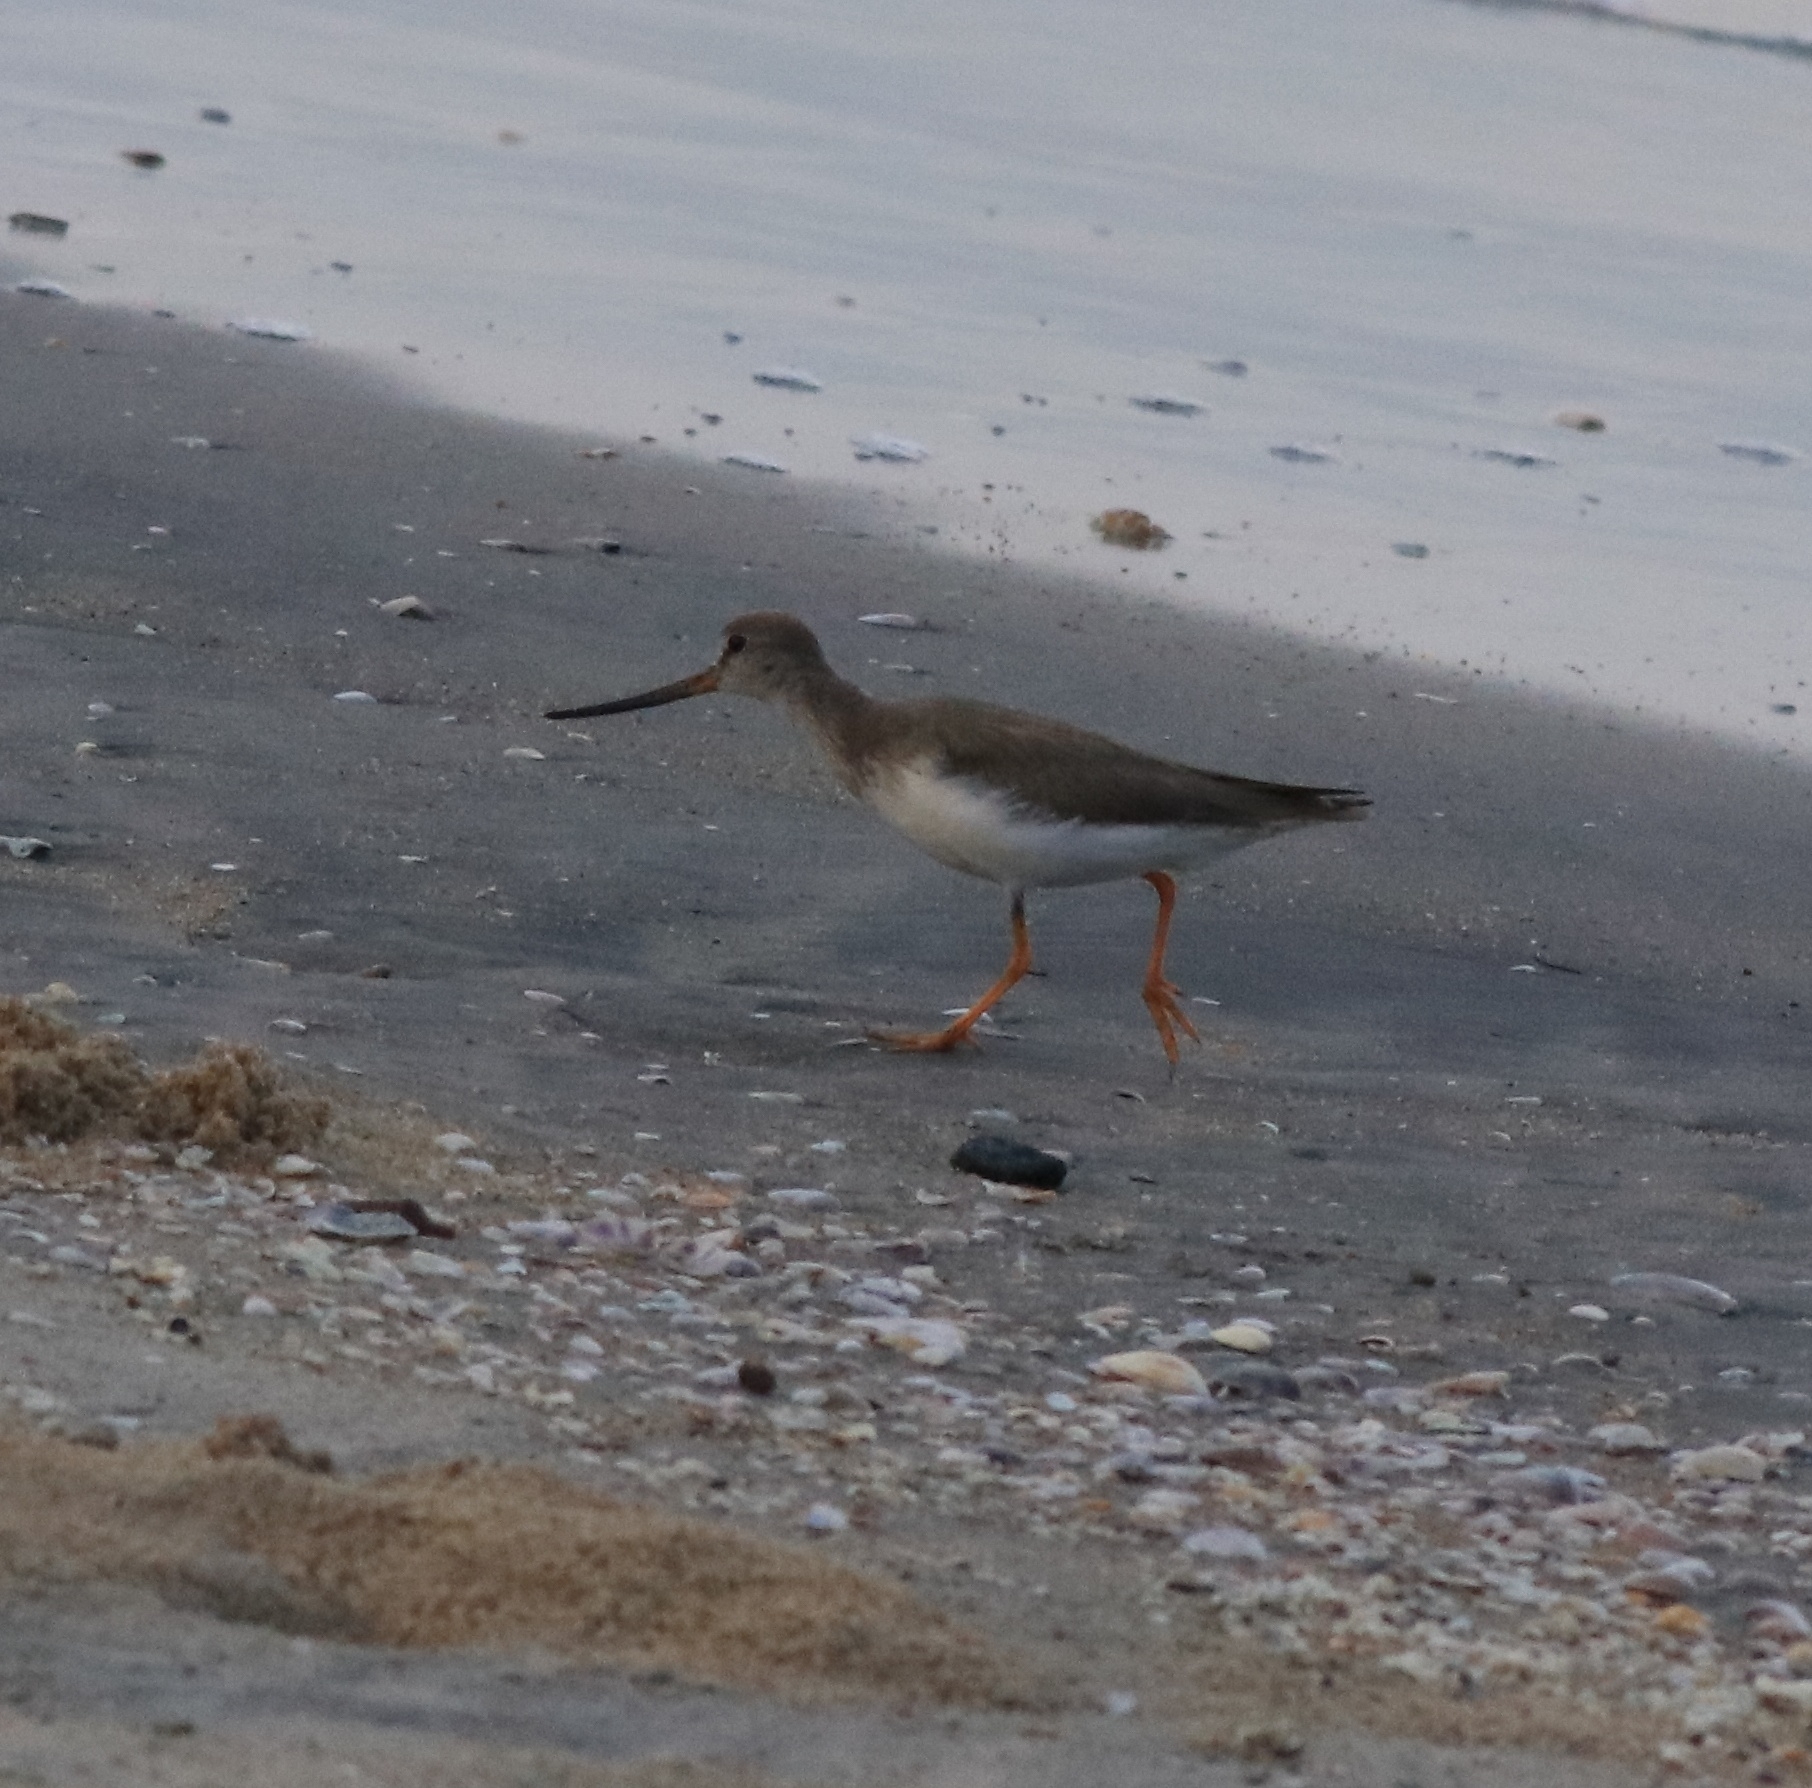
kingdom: Animalia
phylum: Chordata
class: Aves
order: Charadriiformes
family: Scolopacidae
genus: Xenus
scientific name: Xenus cinereus
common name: Terek sandpiper
